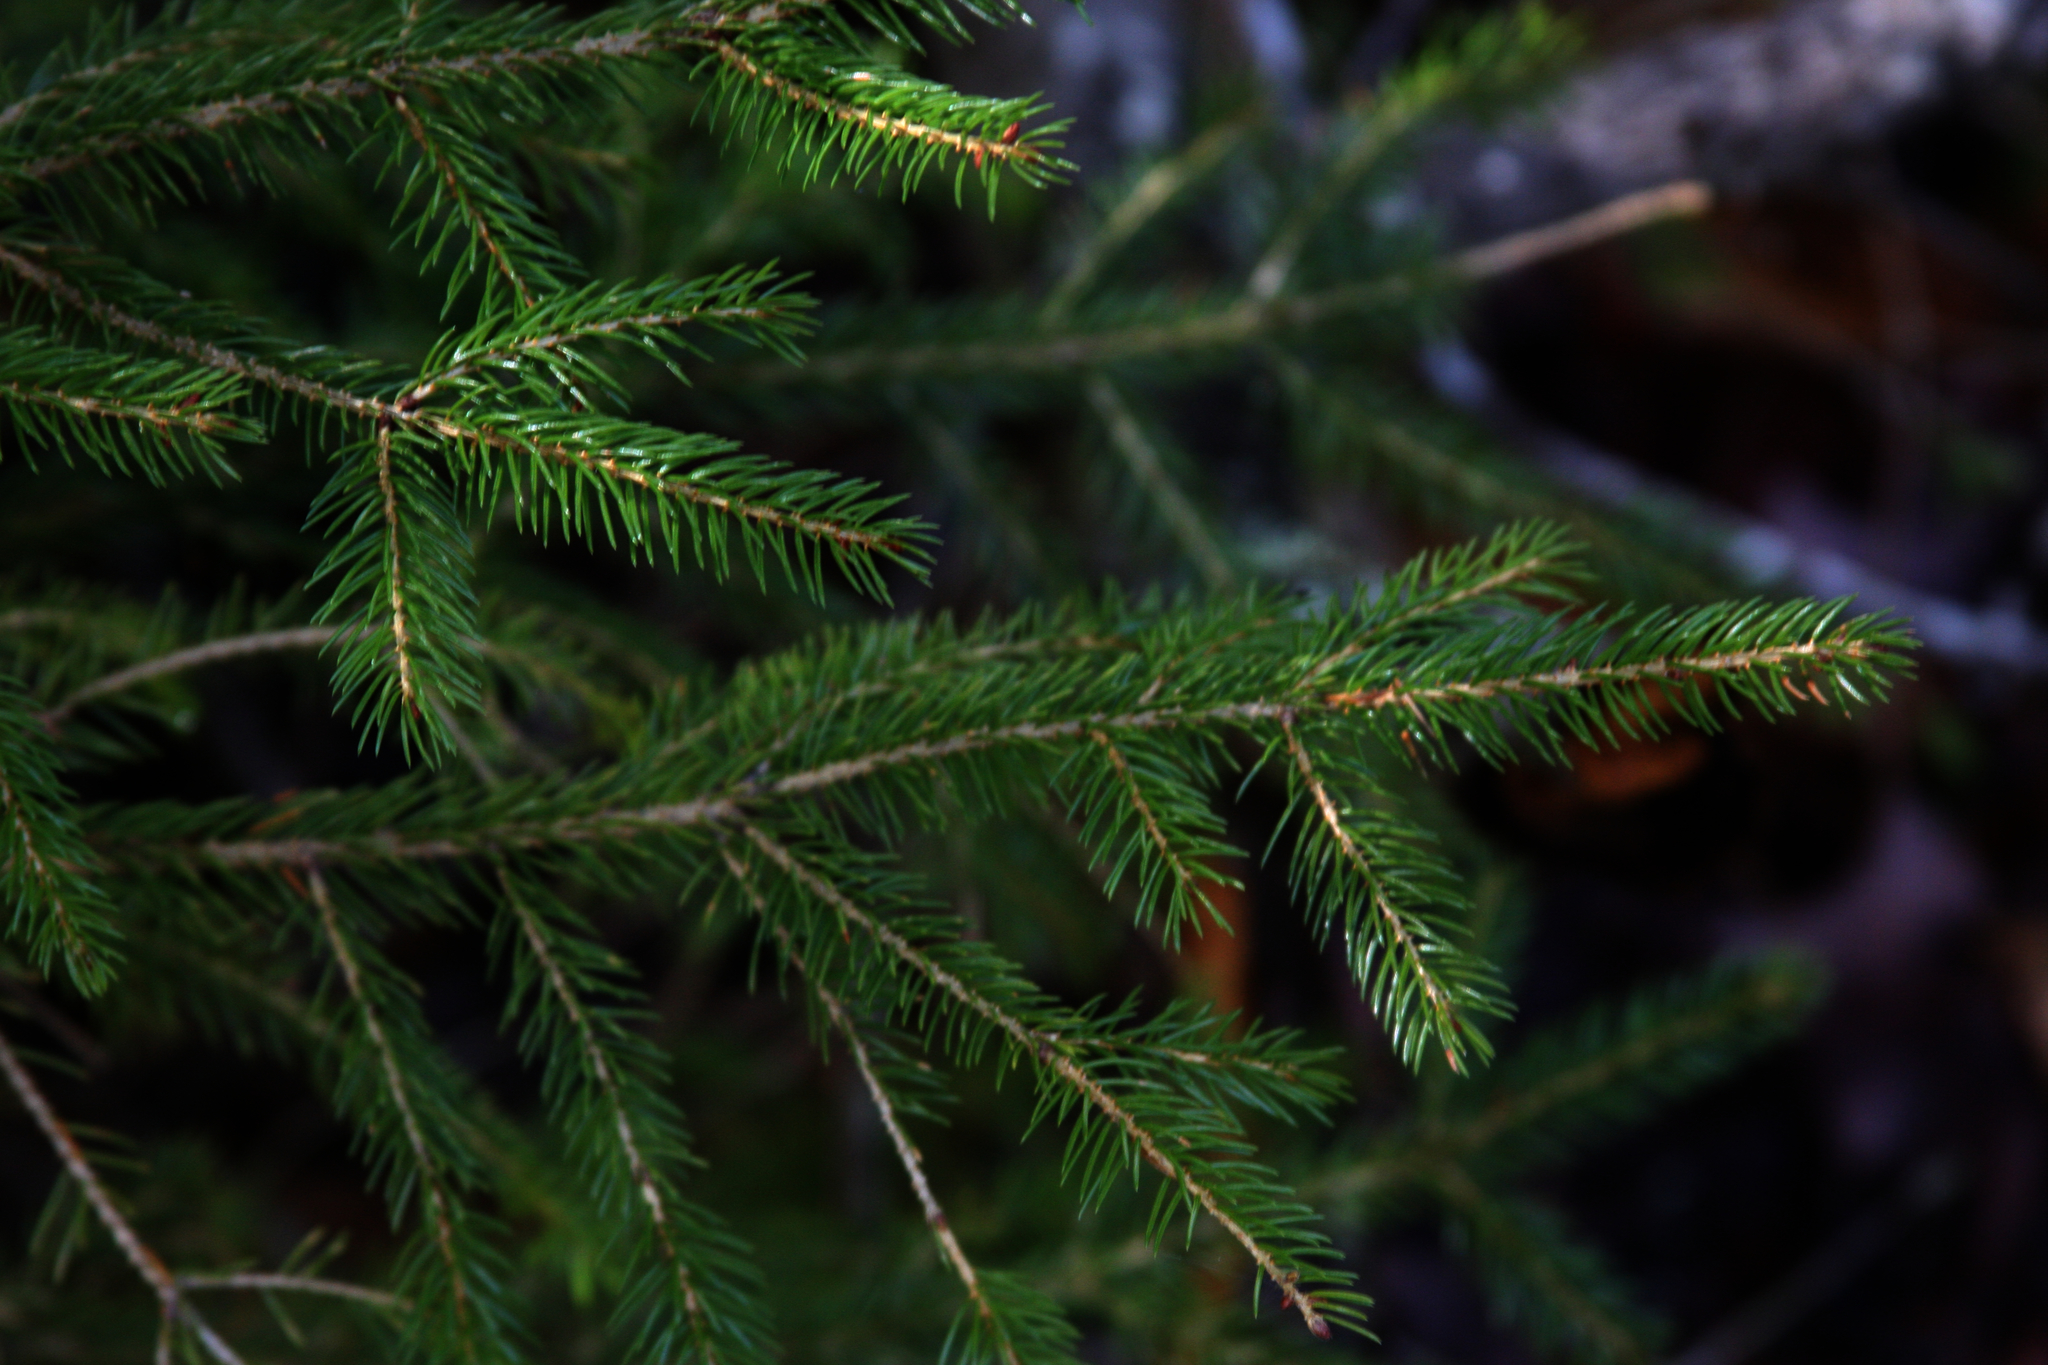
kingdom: Plantae
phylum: Tracheophyta
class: Pinopsida
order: Pinales
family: Pinaceae
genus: Picea
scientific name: Picea rubens
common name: Red spruce
